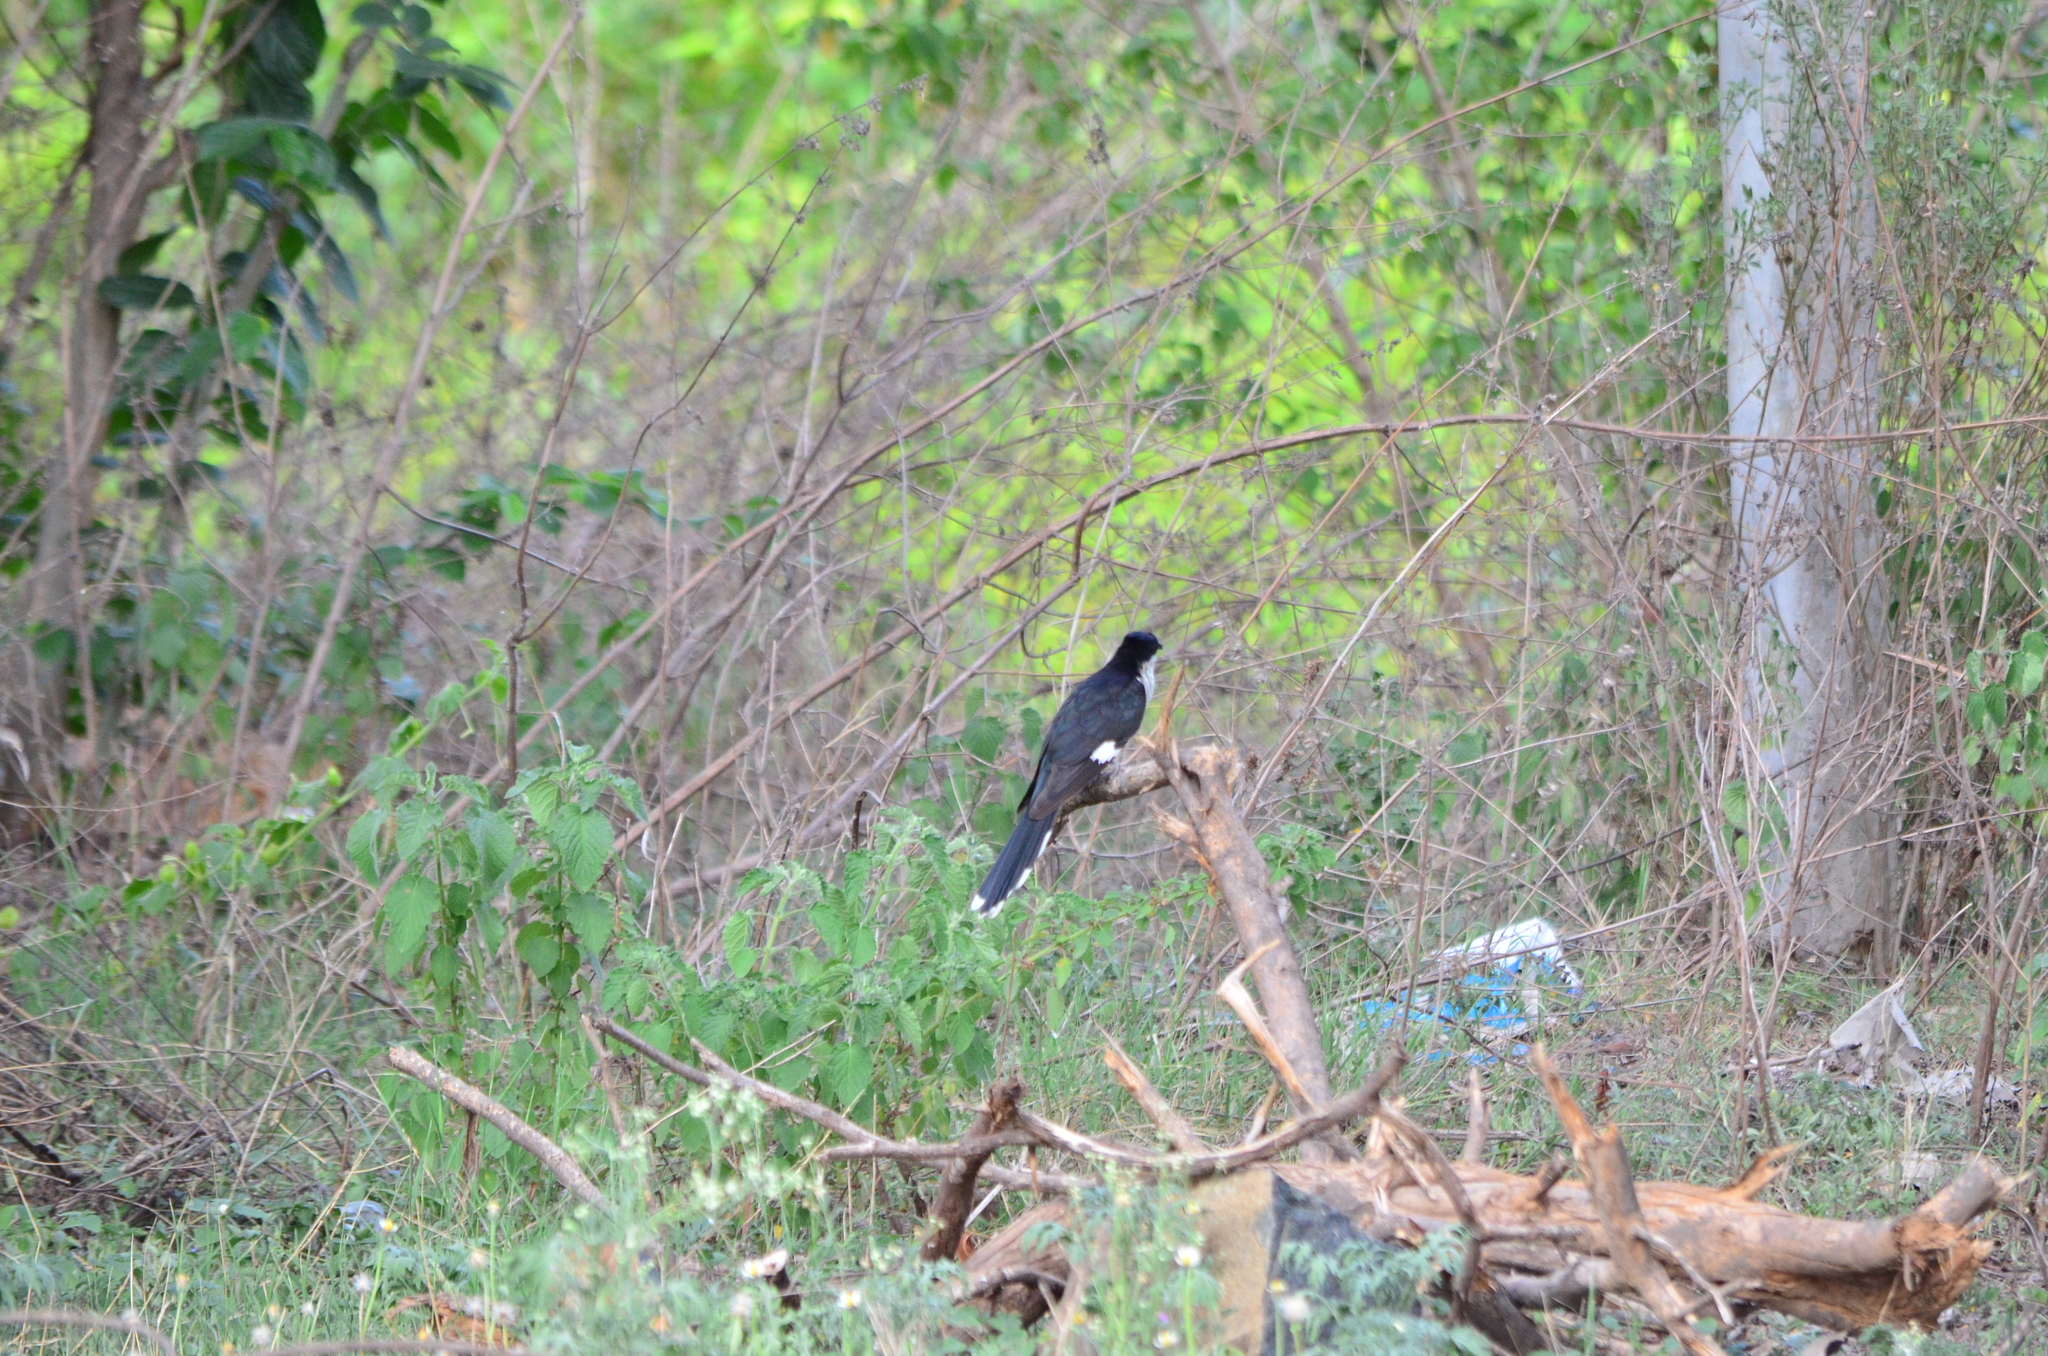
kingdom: Animalia
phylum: Chordata
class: Aves
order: Cuculiformes
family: Cuculidae
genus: Clamator
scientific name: Clamator jacobinus
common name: Jacobin cuckoo
